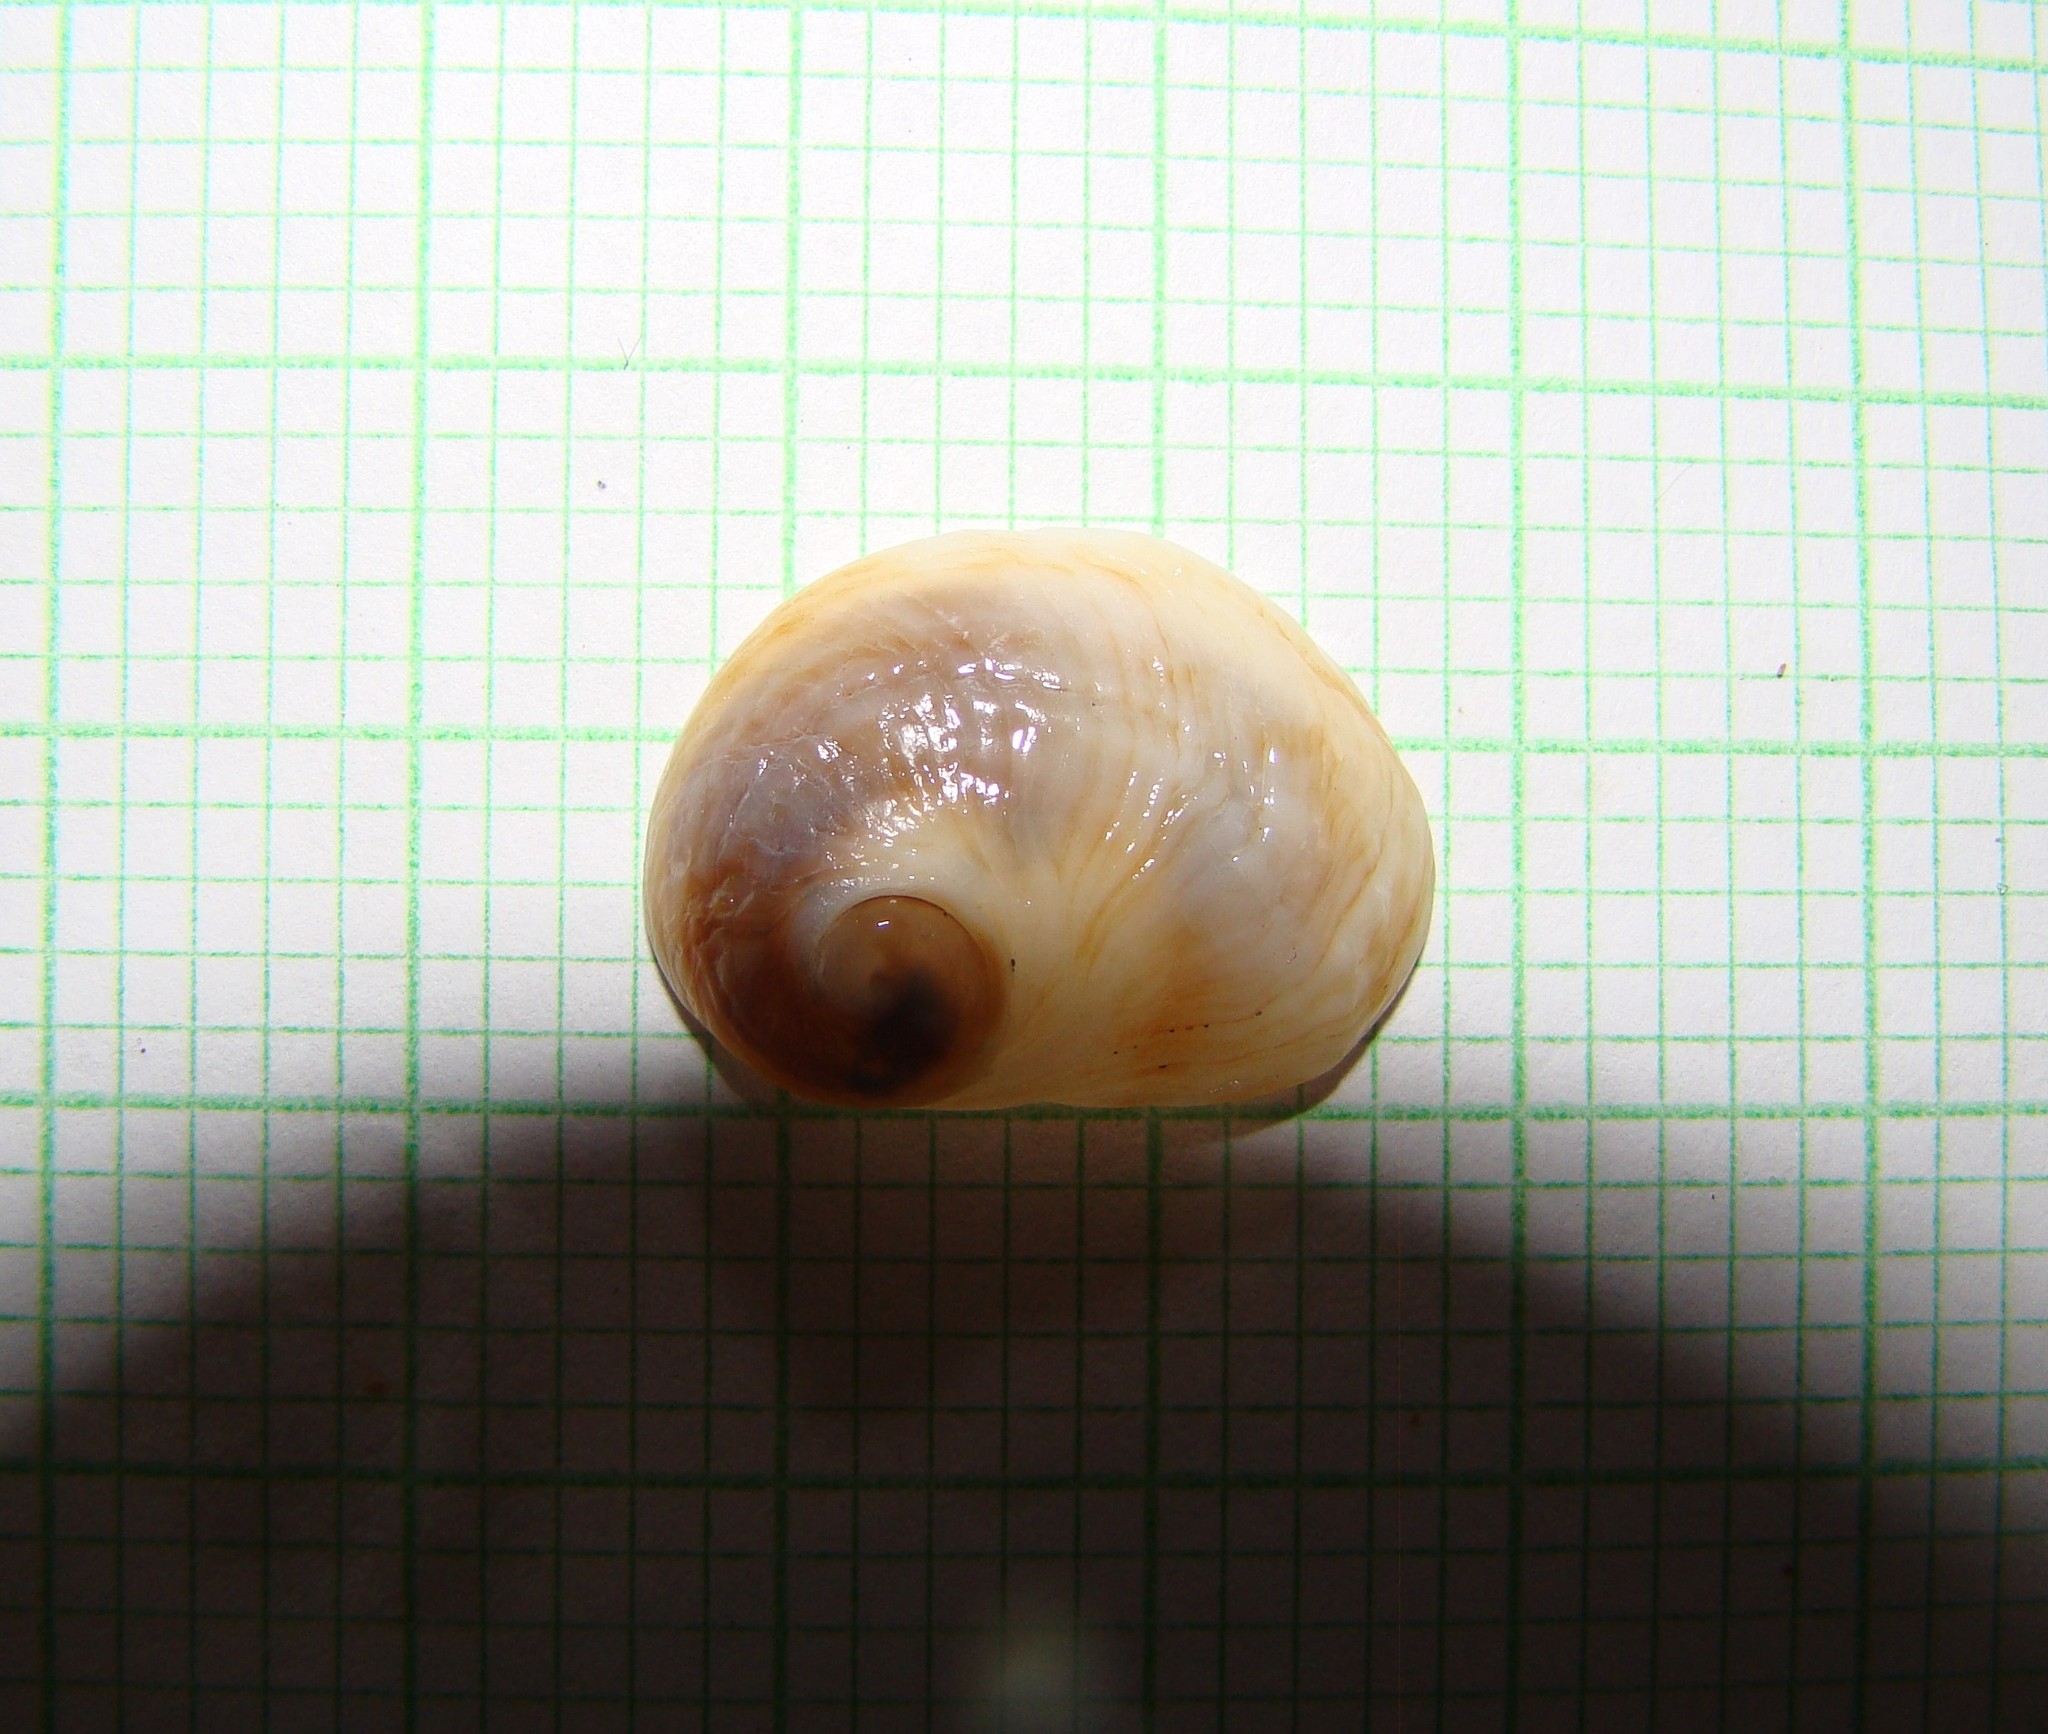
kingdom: Animalia
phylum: Mollusca
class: Gastropoda
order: Littorinimorpha
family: Calyptraeidae
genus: Sigapatella
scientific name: Sigapatella novaezelandiae
